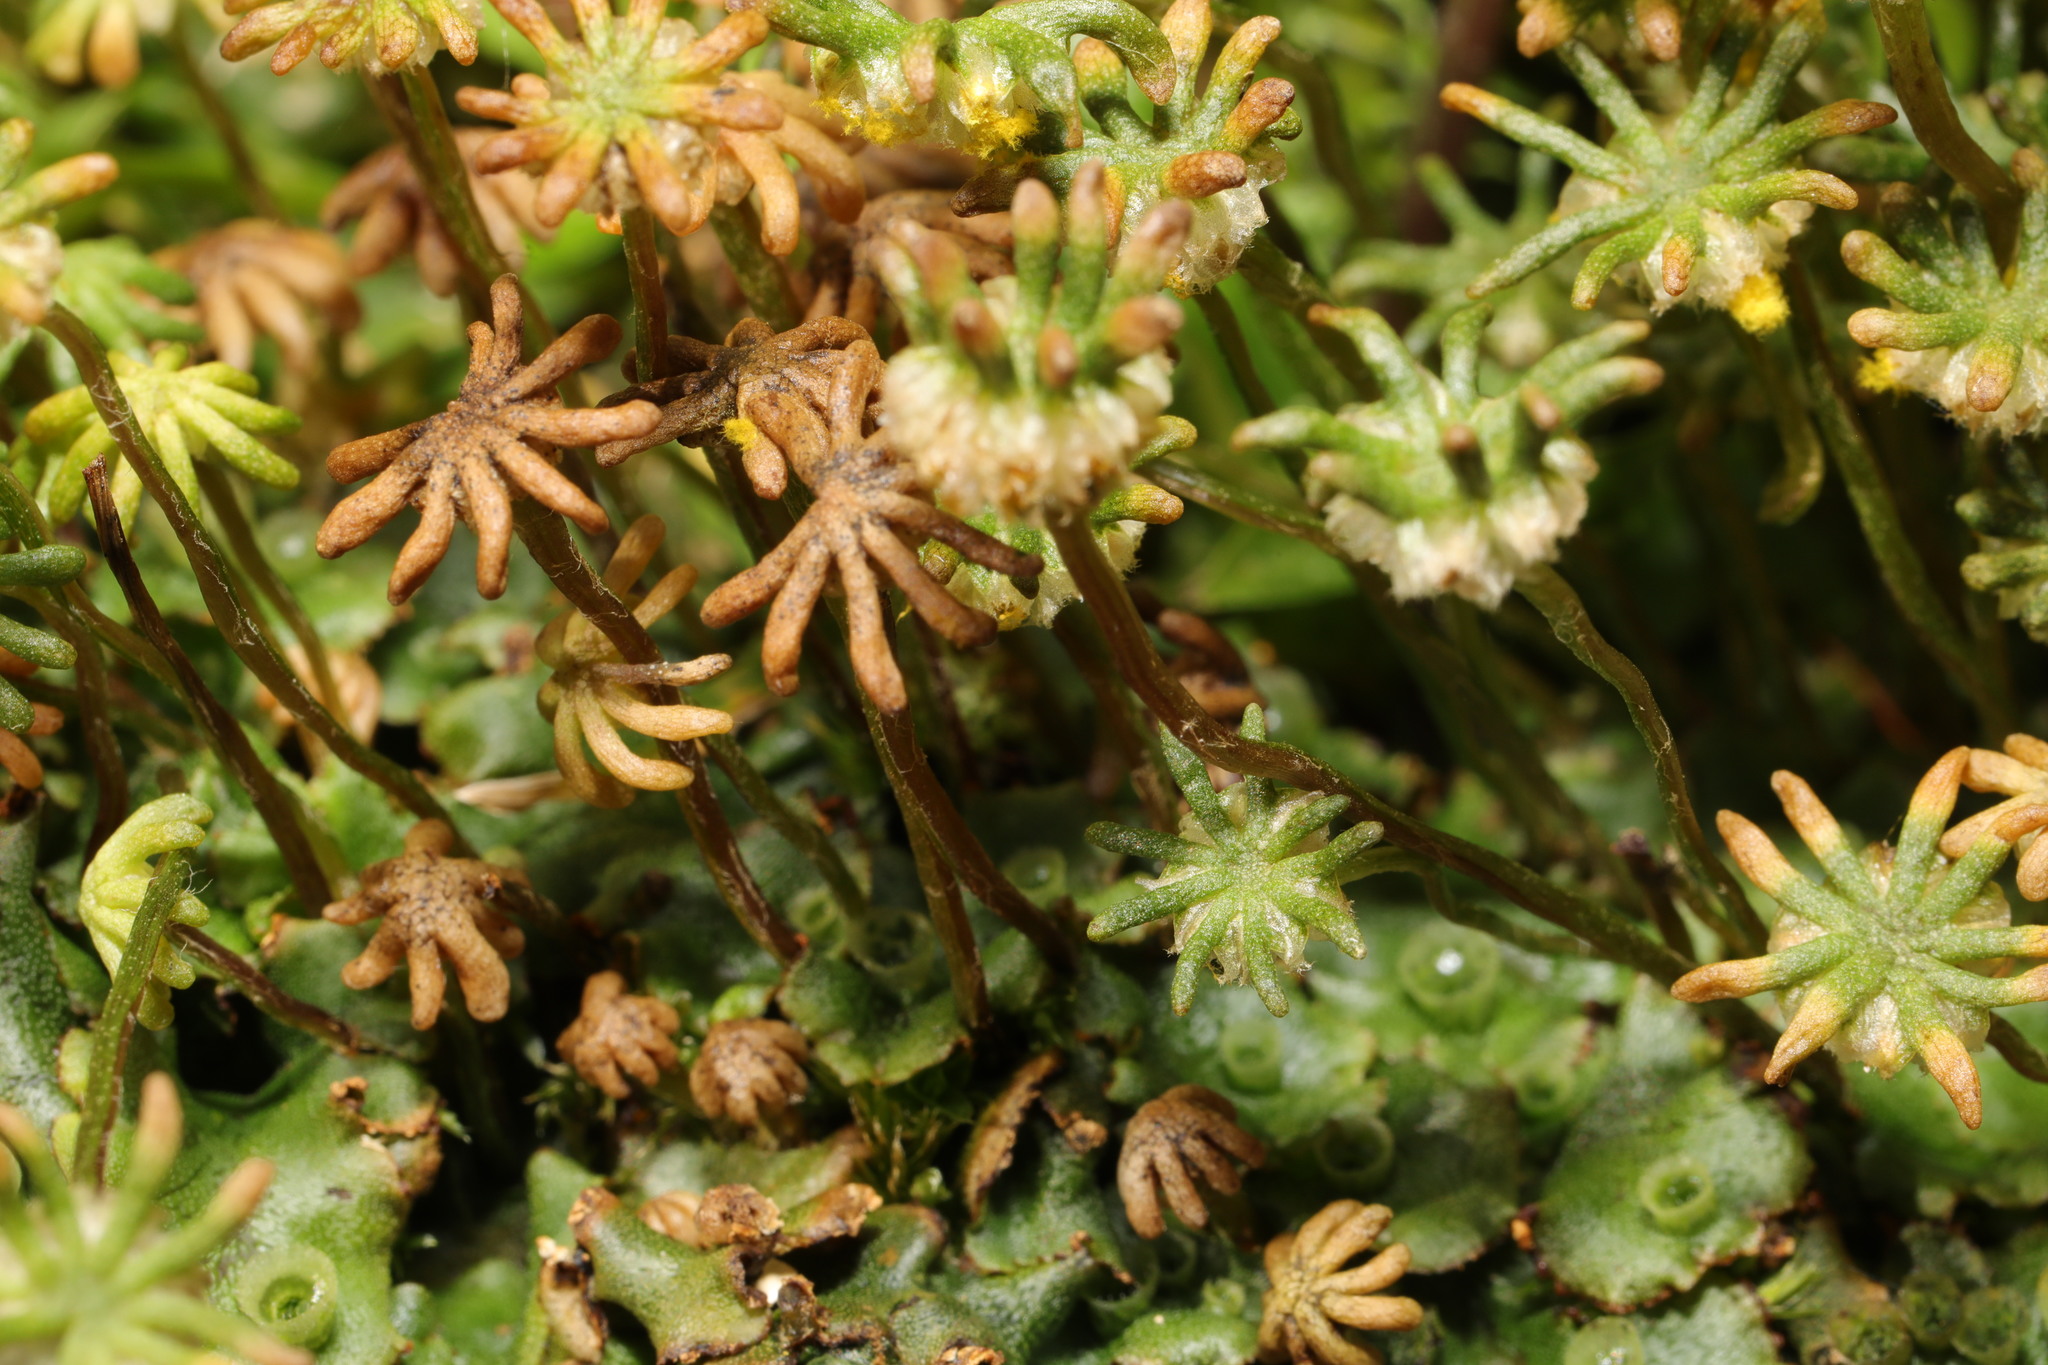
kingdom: Plantae
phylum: Marchantiophyta
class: Marchantiopsida
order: Marchantiales
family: Marchantiaceae
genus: Marchantia
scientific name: Marchantia polymorpha
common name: Common liverwort
